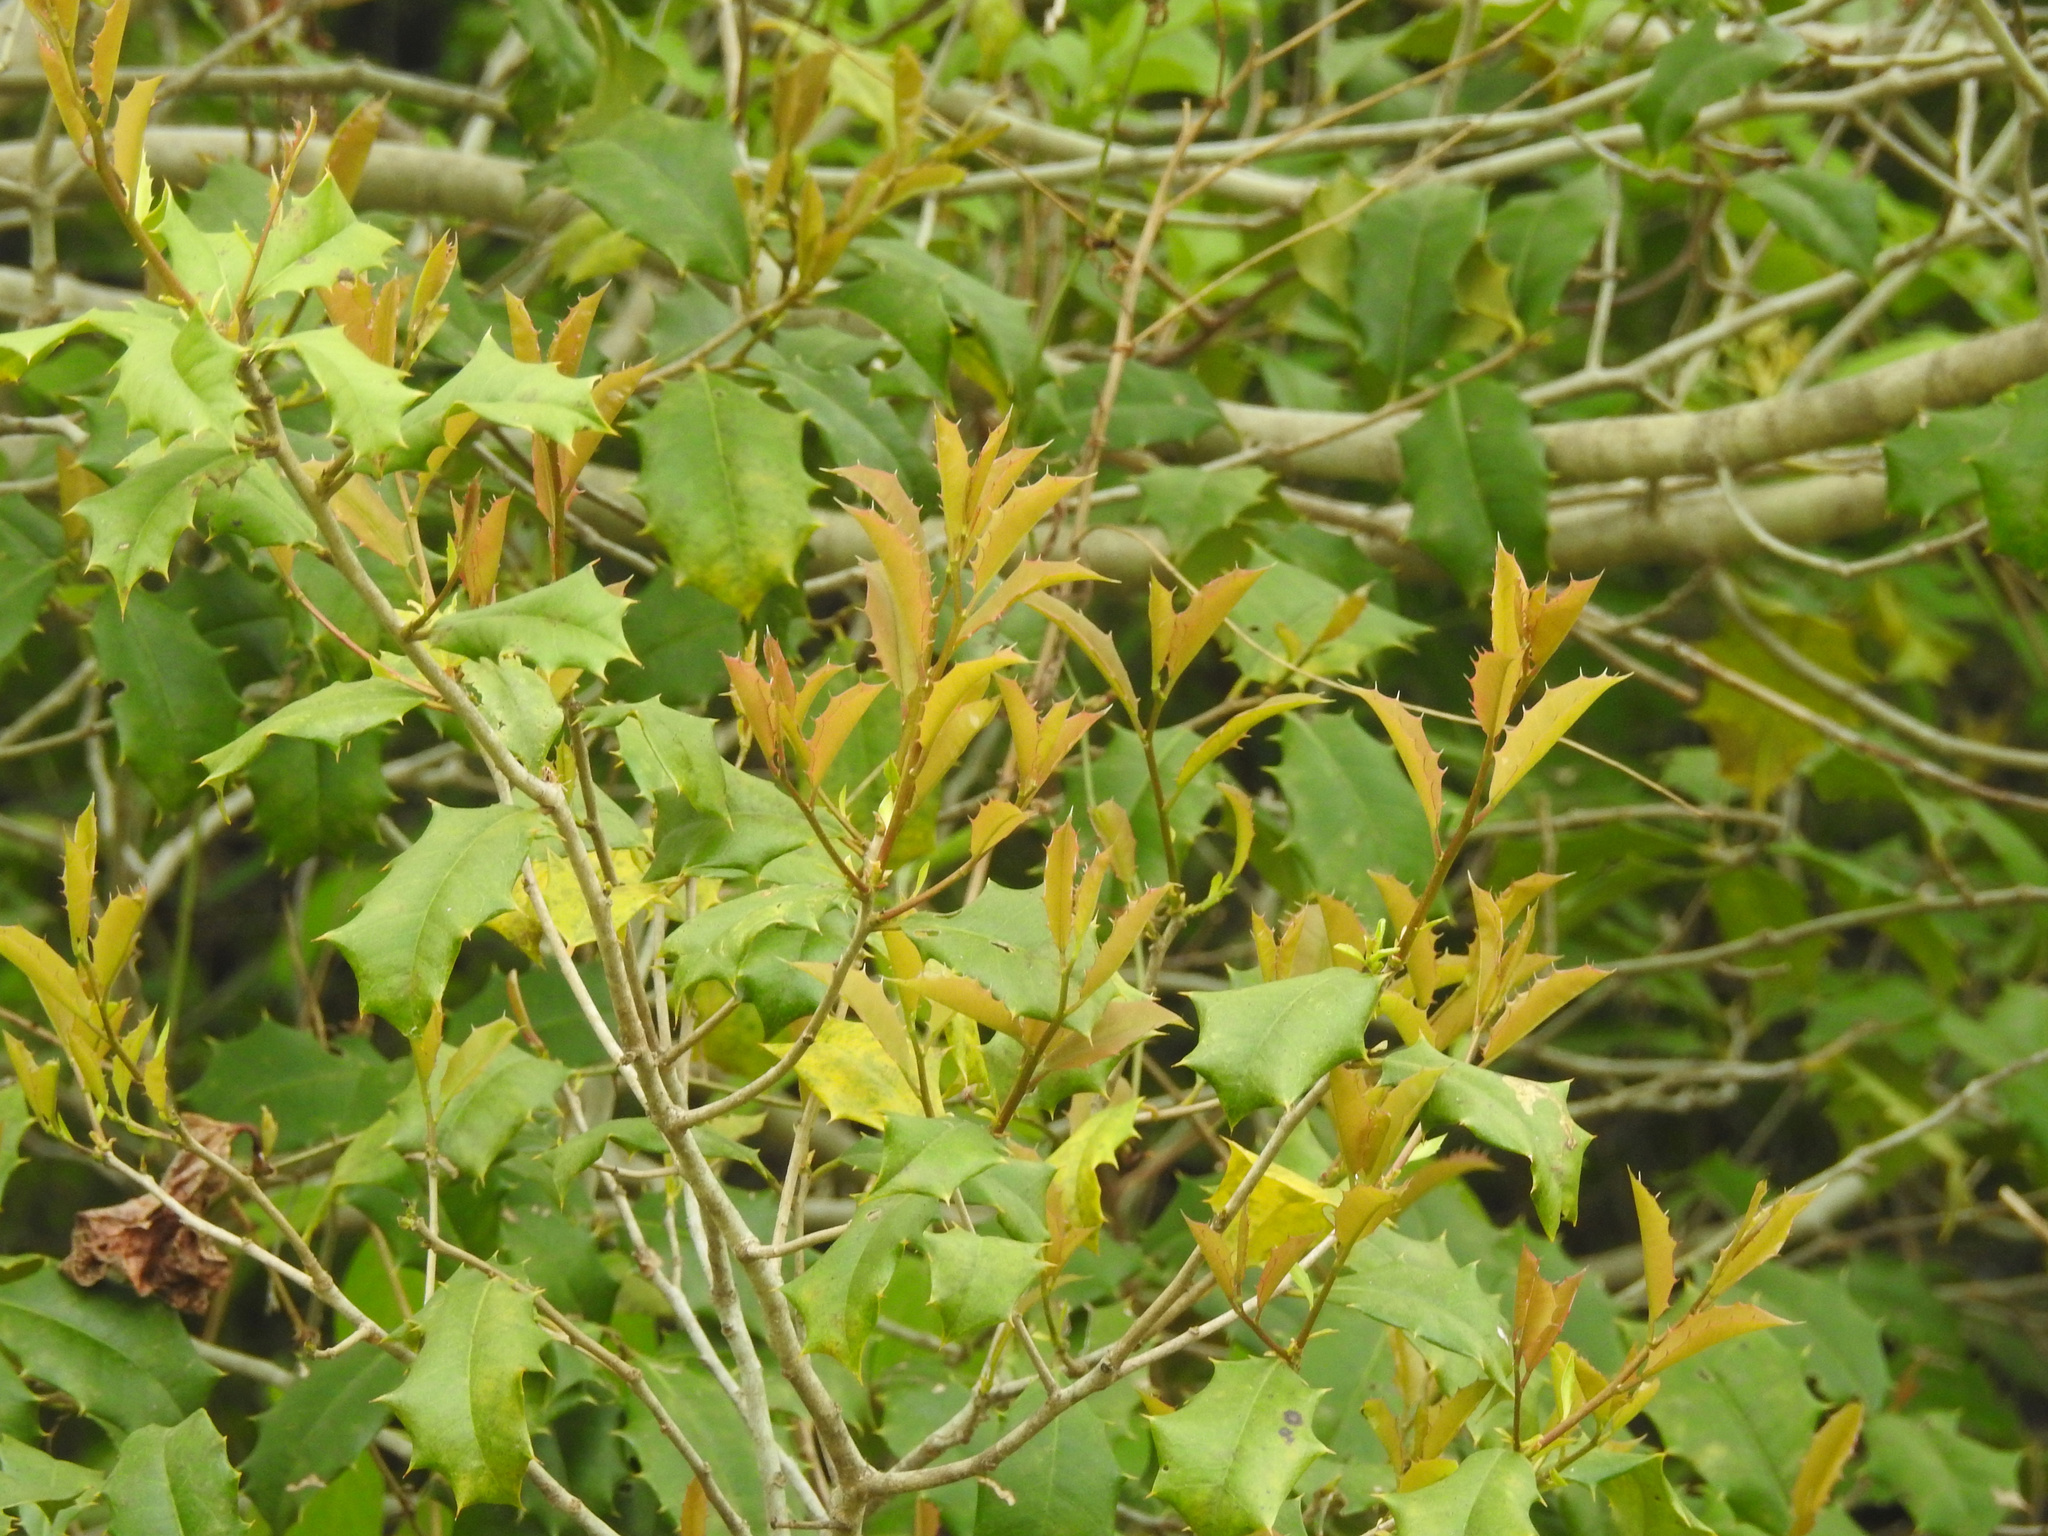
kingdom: Plantae
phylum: Tracheophyta
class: Magnoliopsida
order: Aquifoliales
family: Aquifoliaceae
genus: Ilex
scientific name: Ilex opaca
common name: American holly
